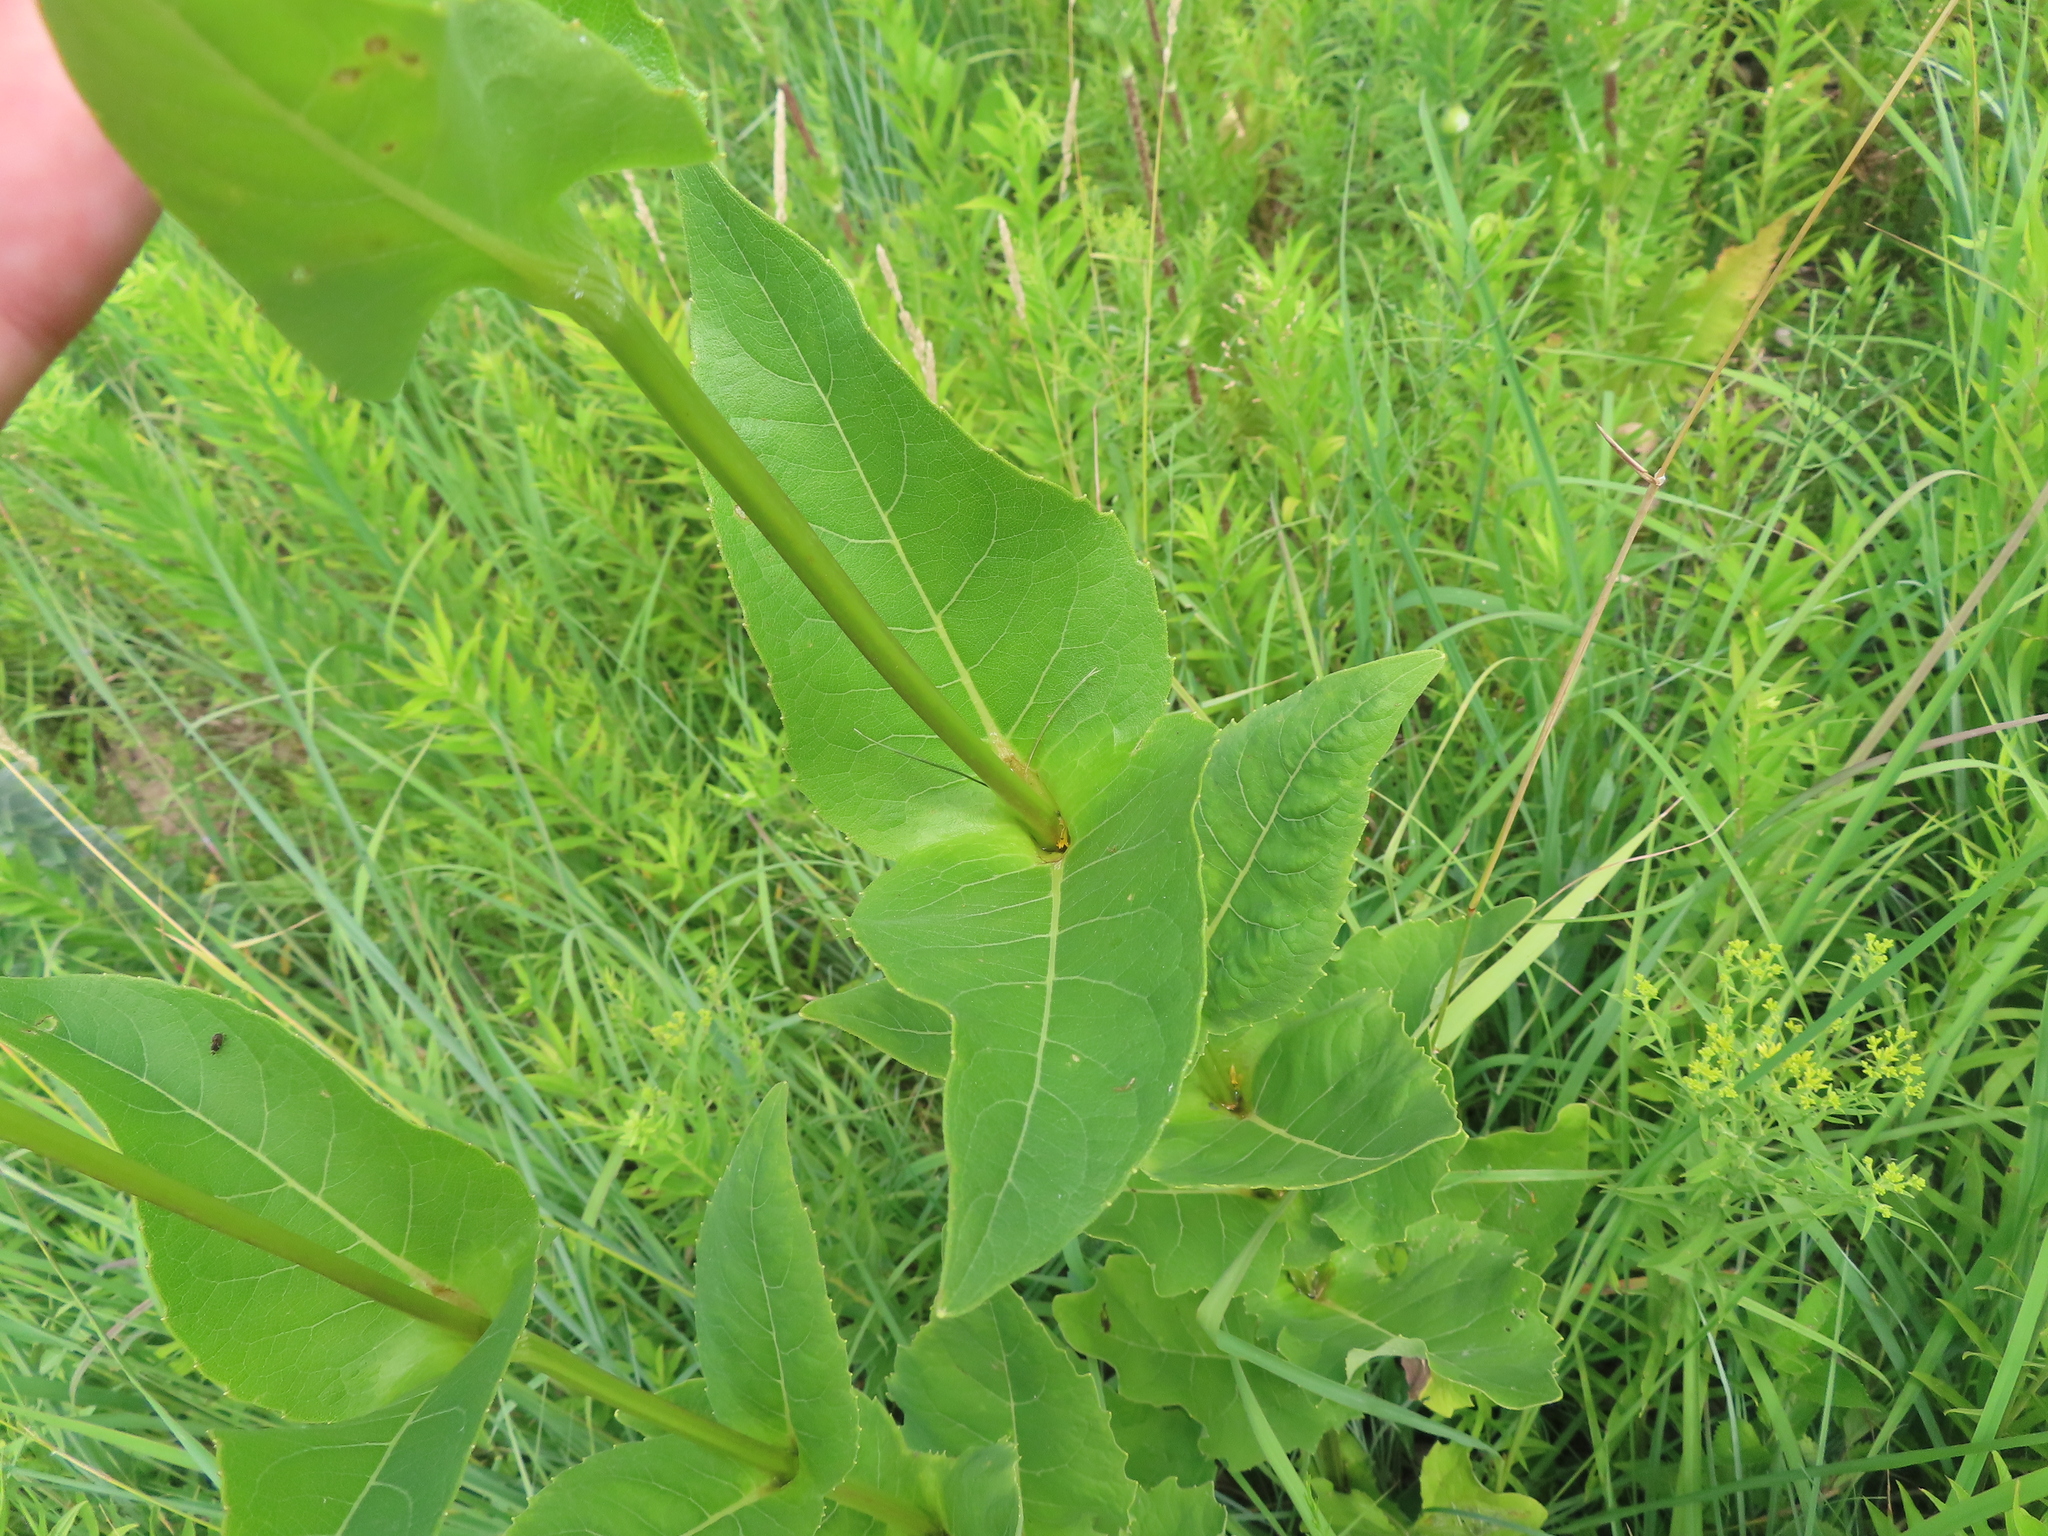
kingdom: Plantae
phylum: Tracheophyta
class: Magnoliopsida
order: Asterales
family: Asteraceae
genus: Silphium
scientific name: Silphium perfoliatum
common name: Cup-plant
